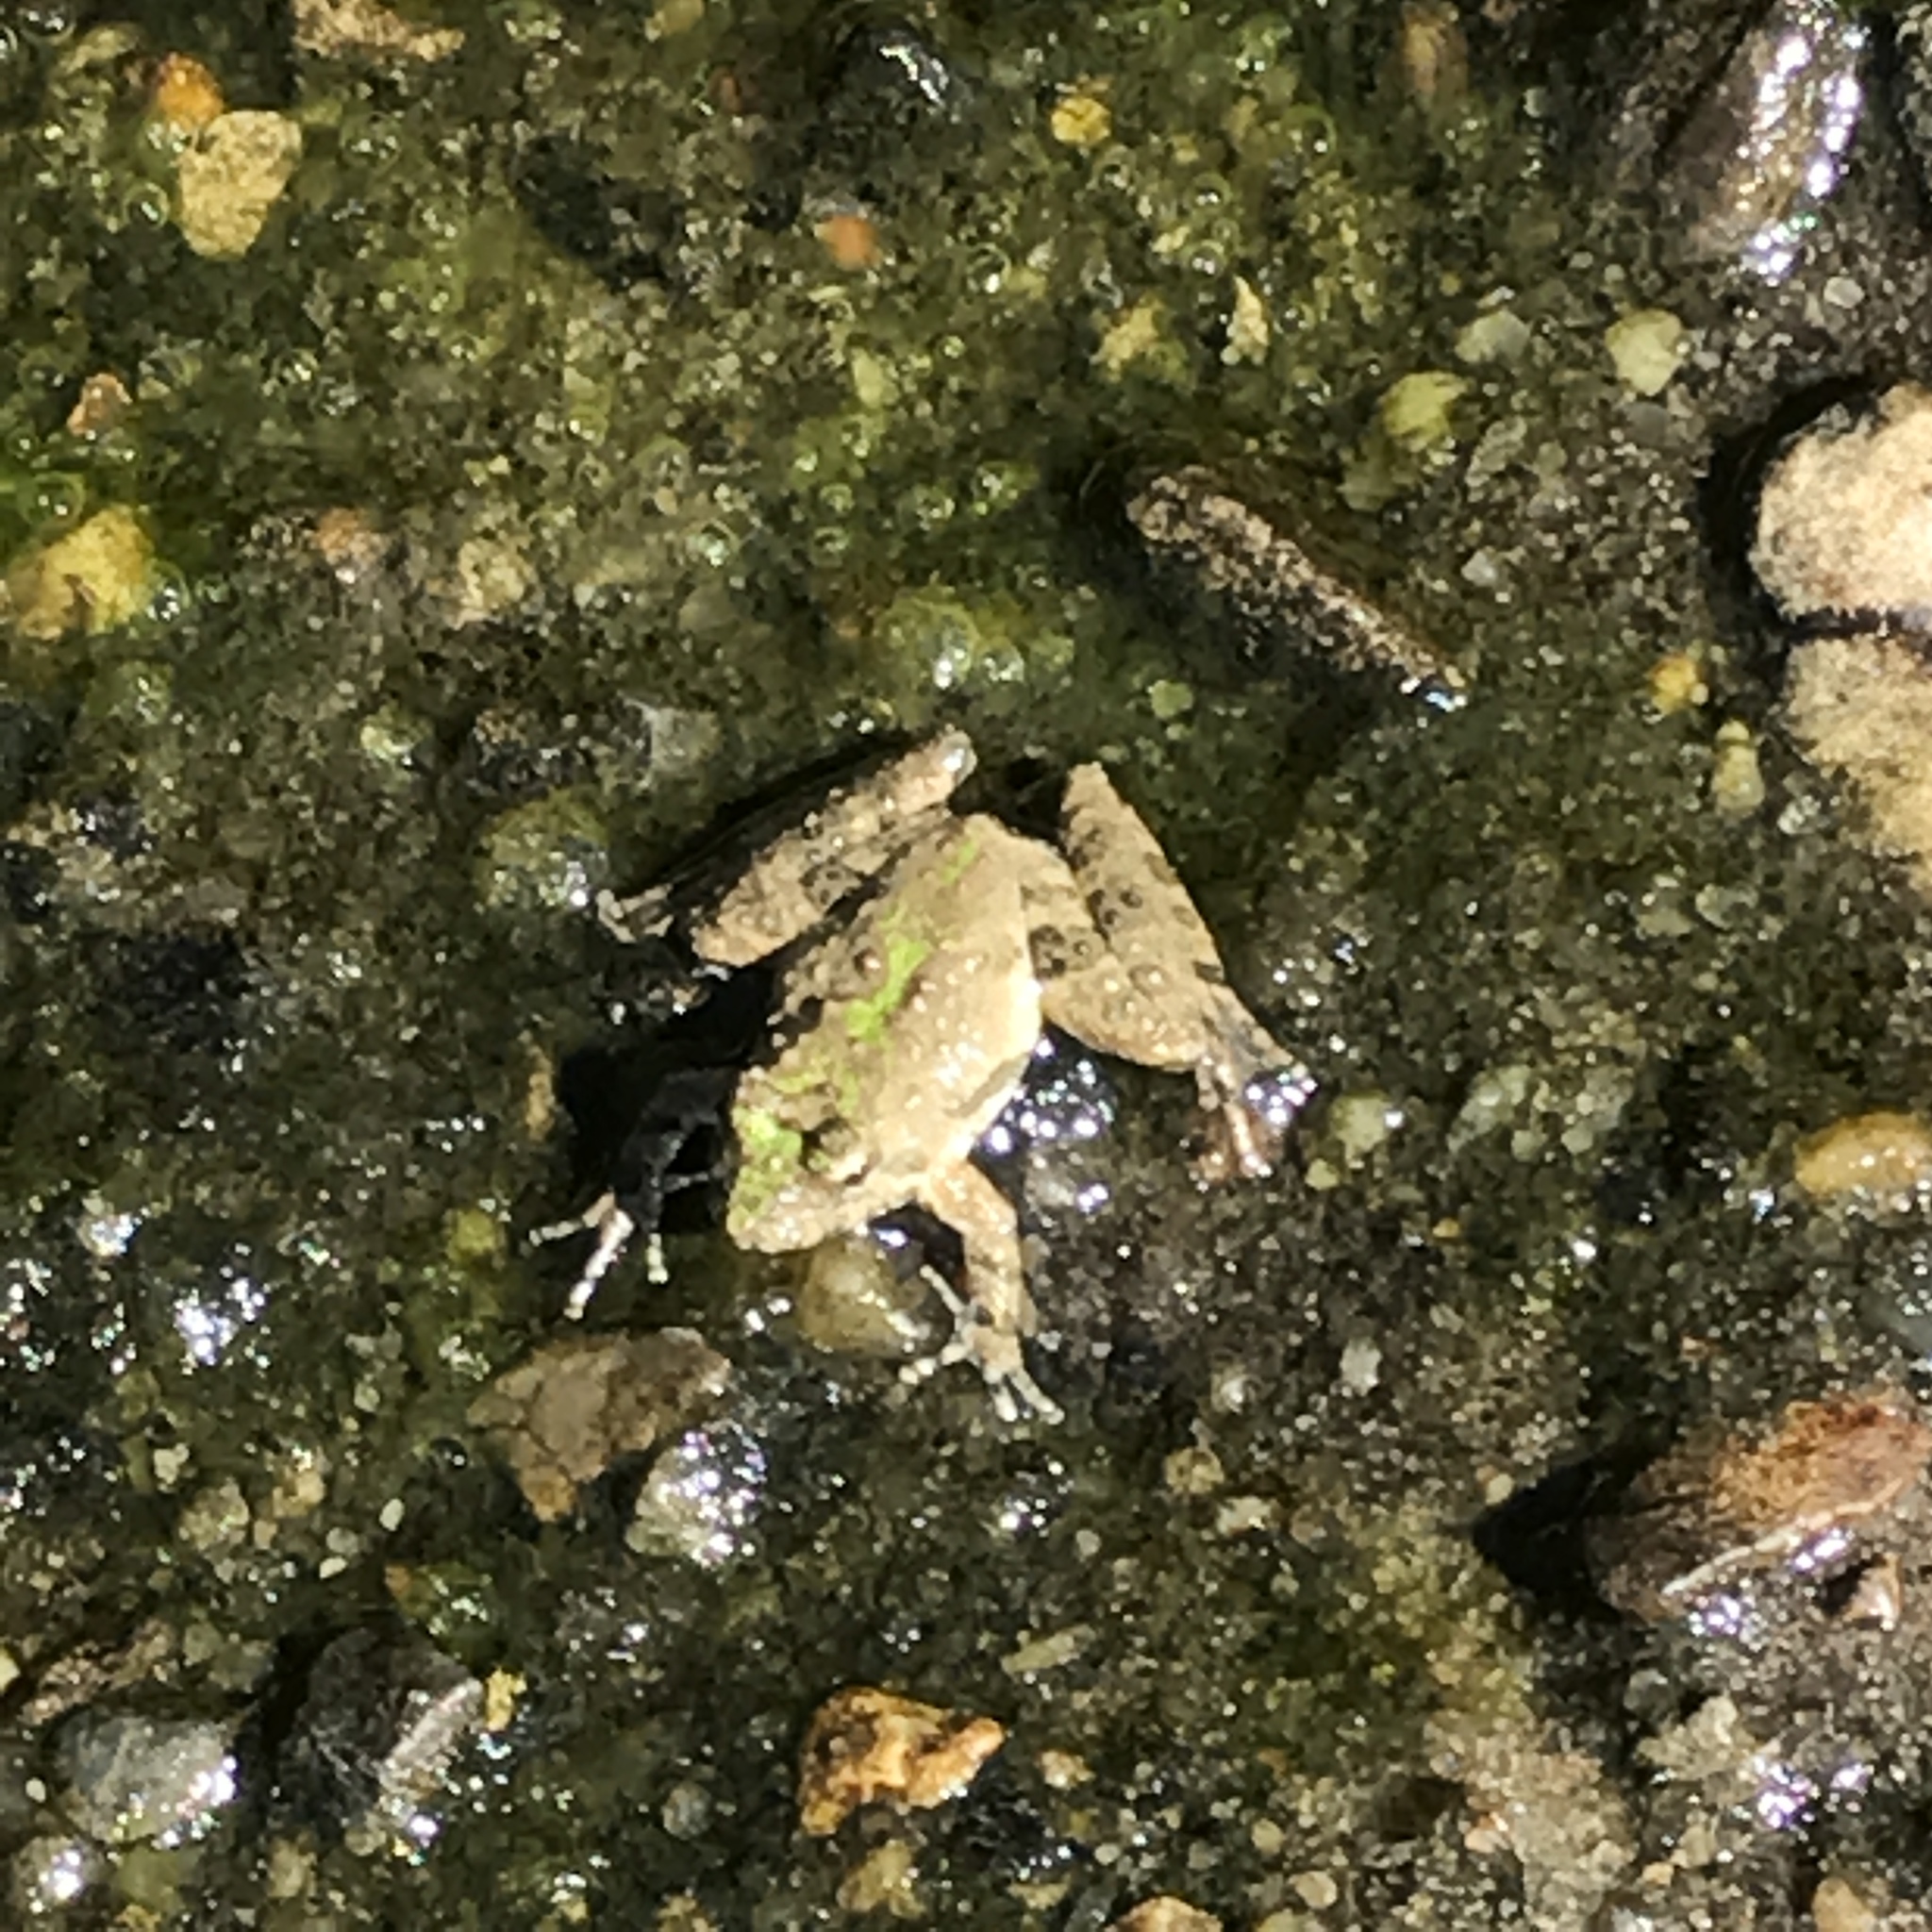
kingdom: Animalia
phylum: Chordata
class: Amphibia
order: Anura
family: Hylidae
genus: Acris
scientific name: Acris blanchardi
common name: Blanchard's cricket frog
